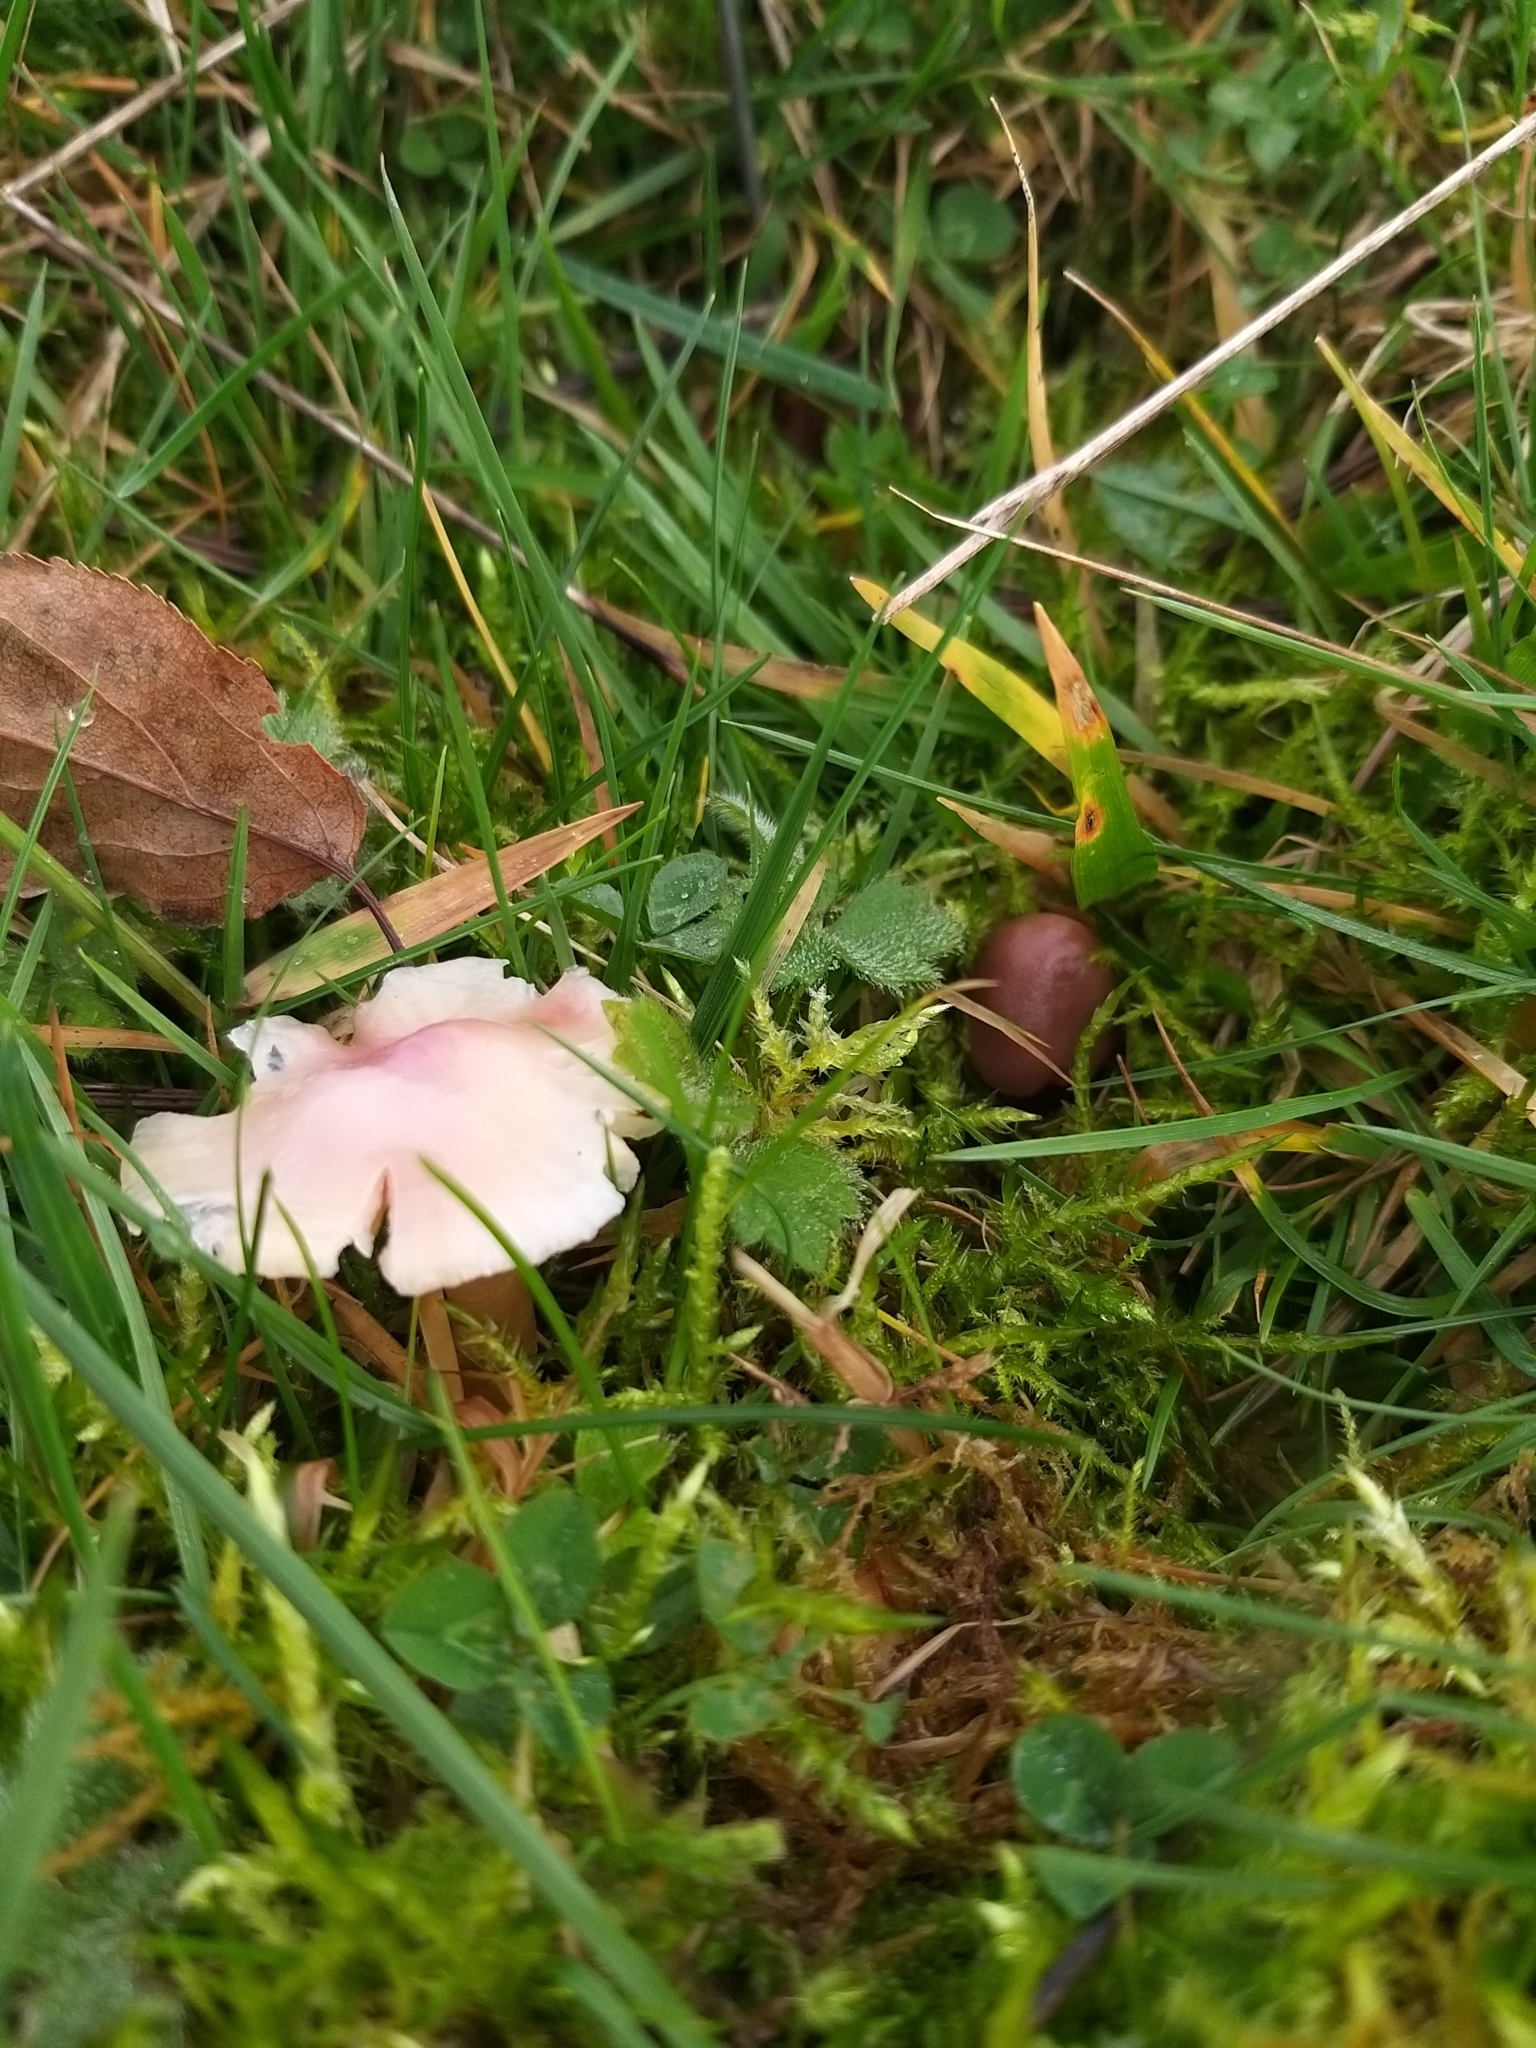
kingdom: Fungi
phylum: Basidiomycota
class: Agaricomycetes
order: Agaricales
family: Hygrophoraceae
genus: Gliophorus
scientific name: Gliophorus reginae
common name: Jubilee waxcap
